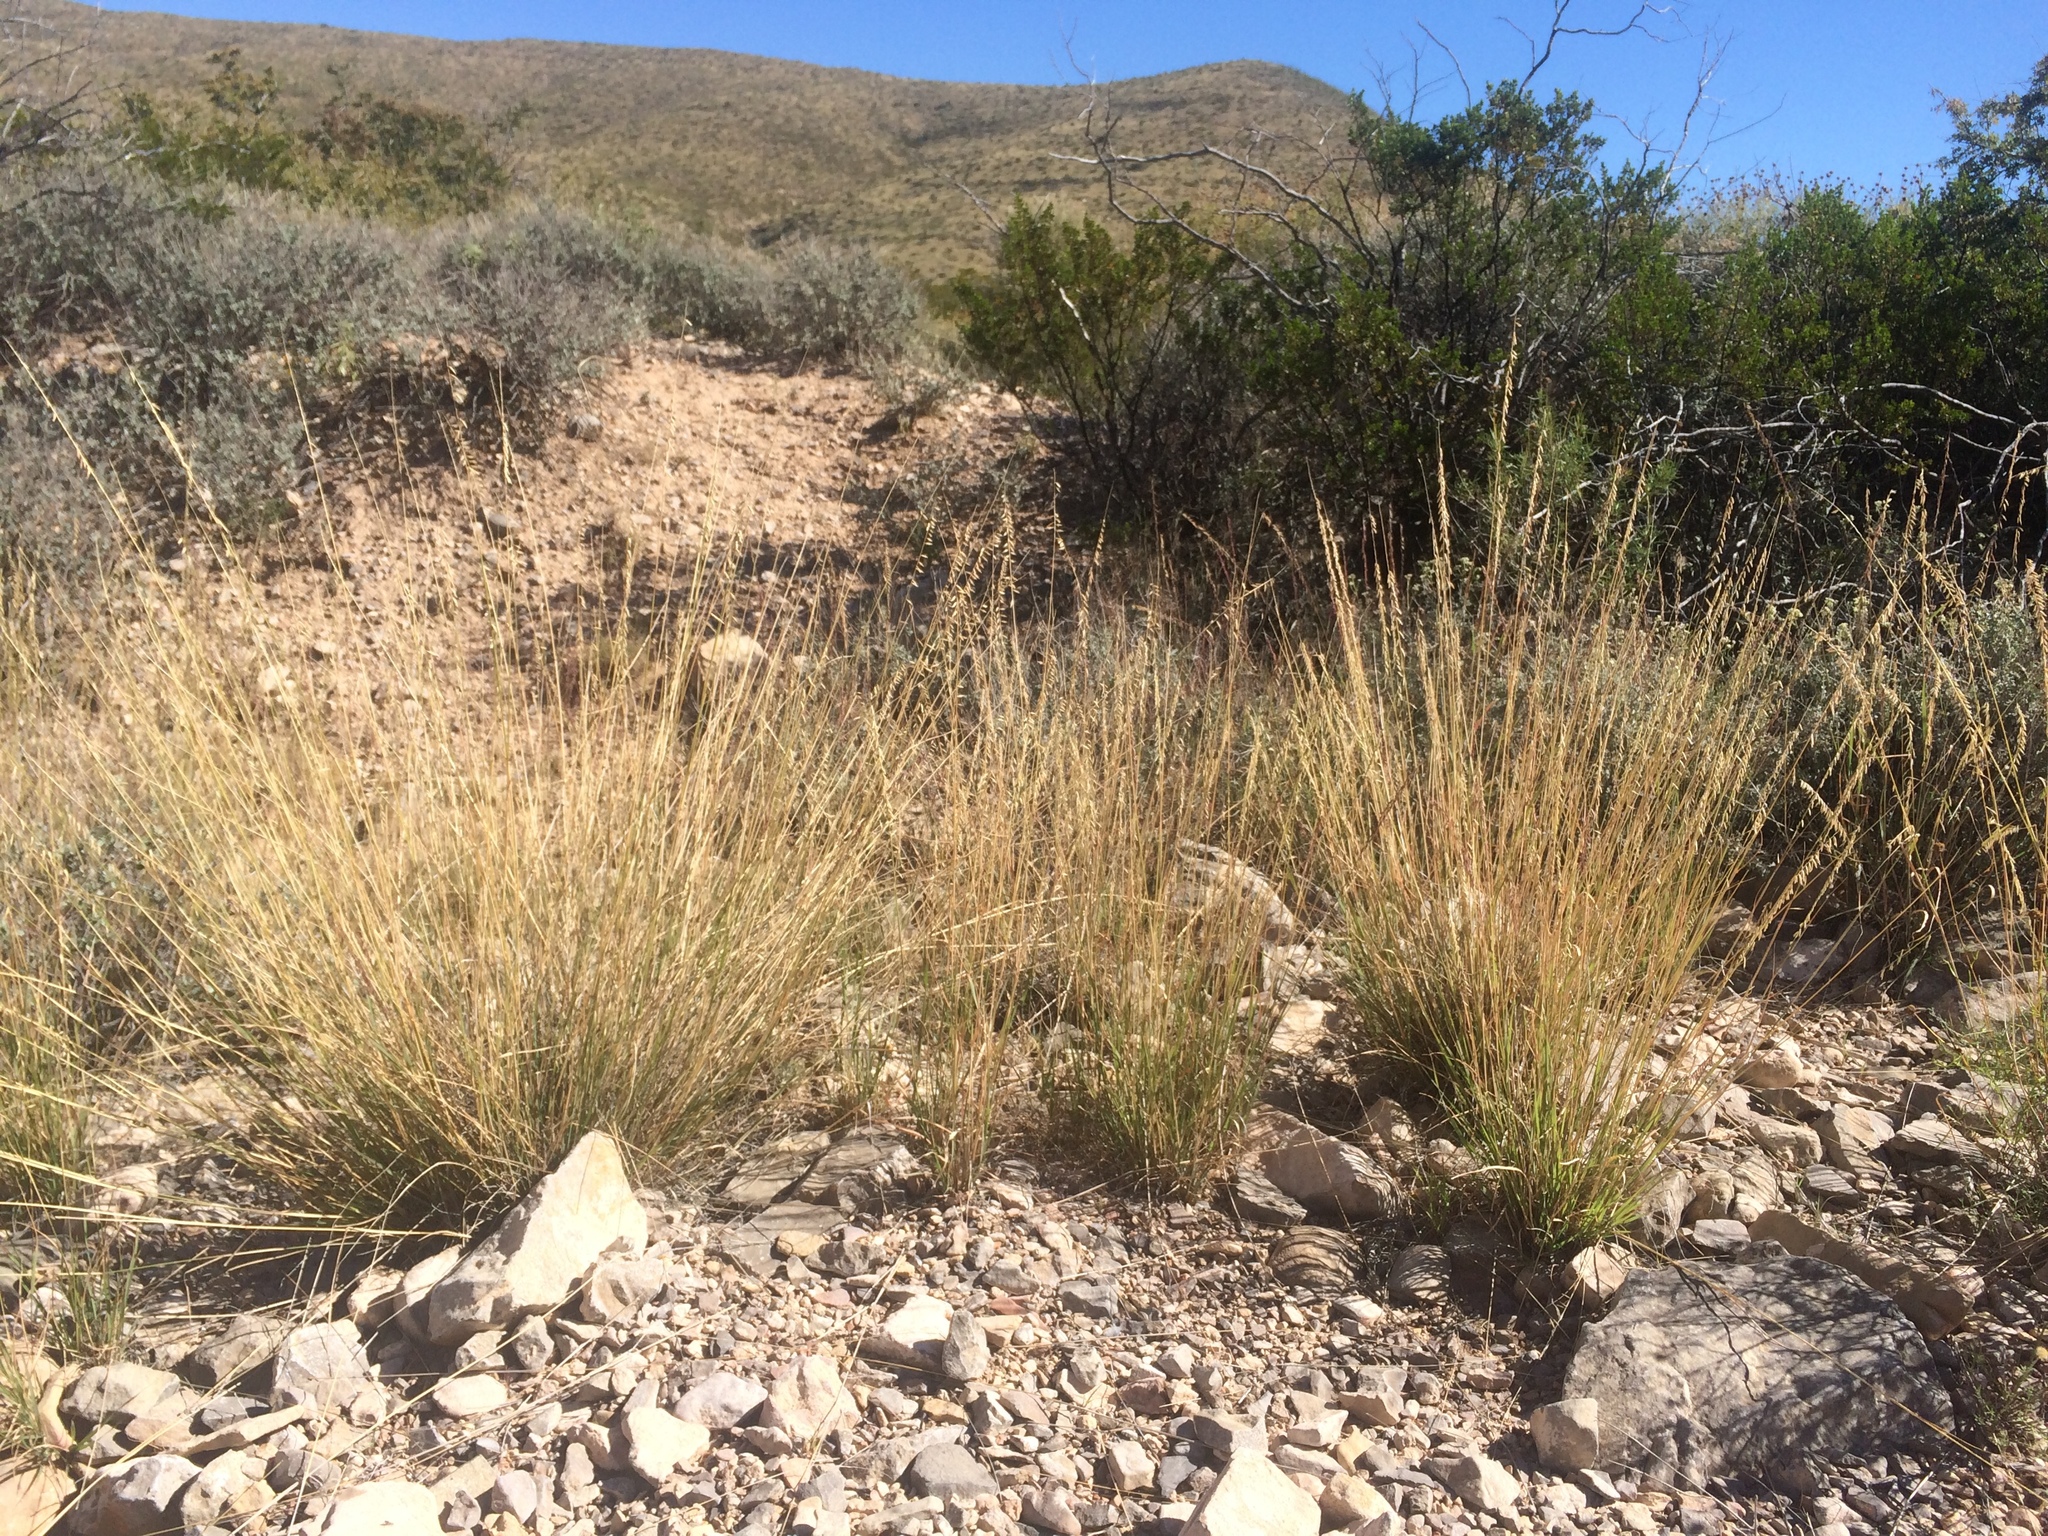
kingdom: Plantae
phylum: Tracheophyta
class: Liliopsida
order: Poales
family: Poaceae
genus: Bouteloua
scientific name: Bouteloua curtipendula
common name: Side-oats grama
